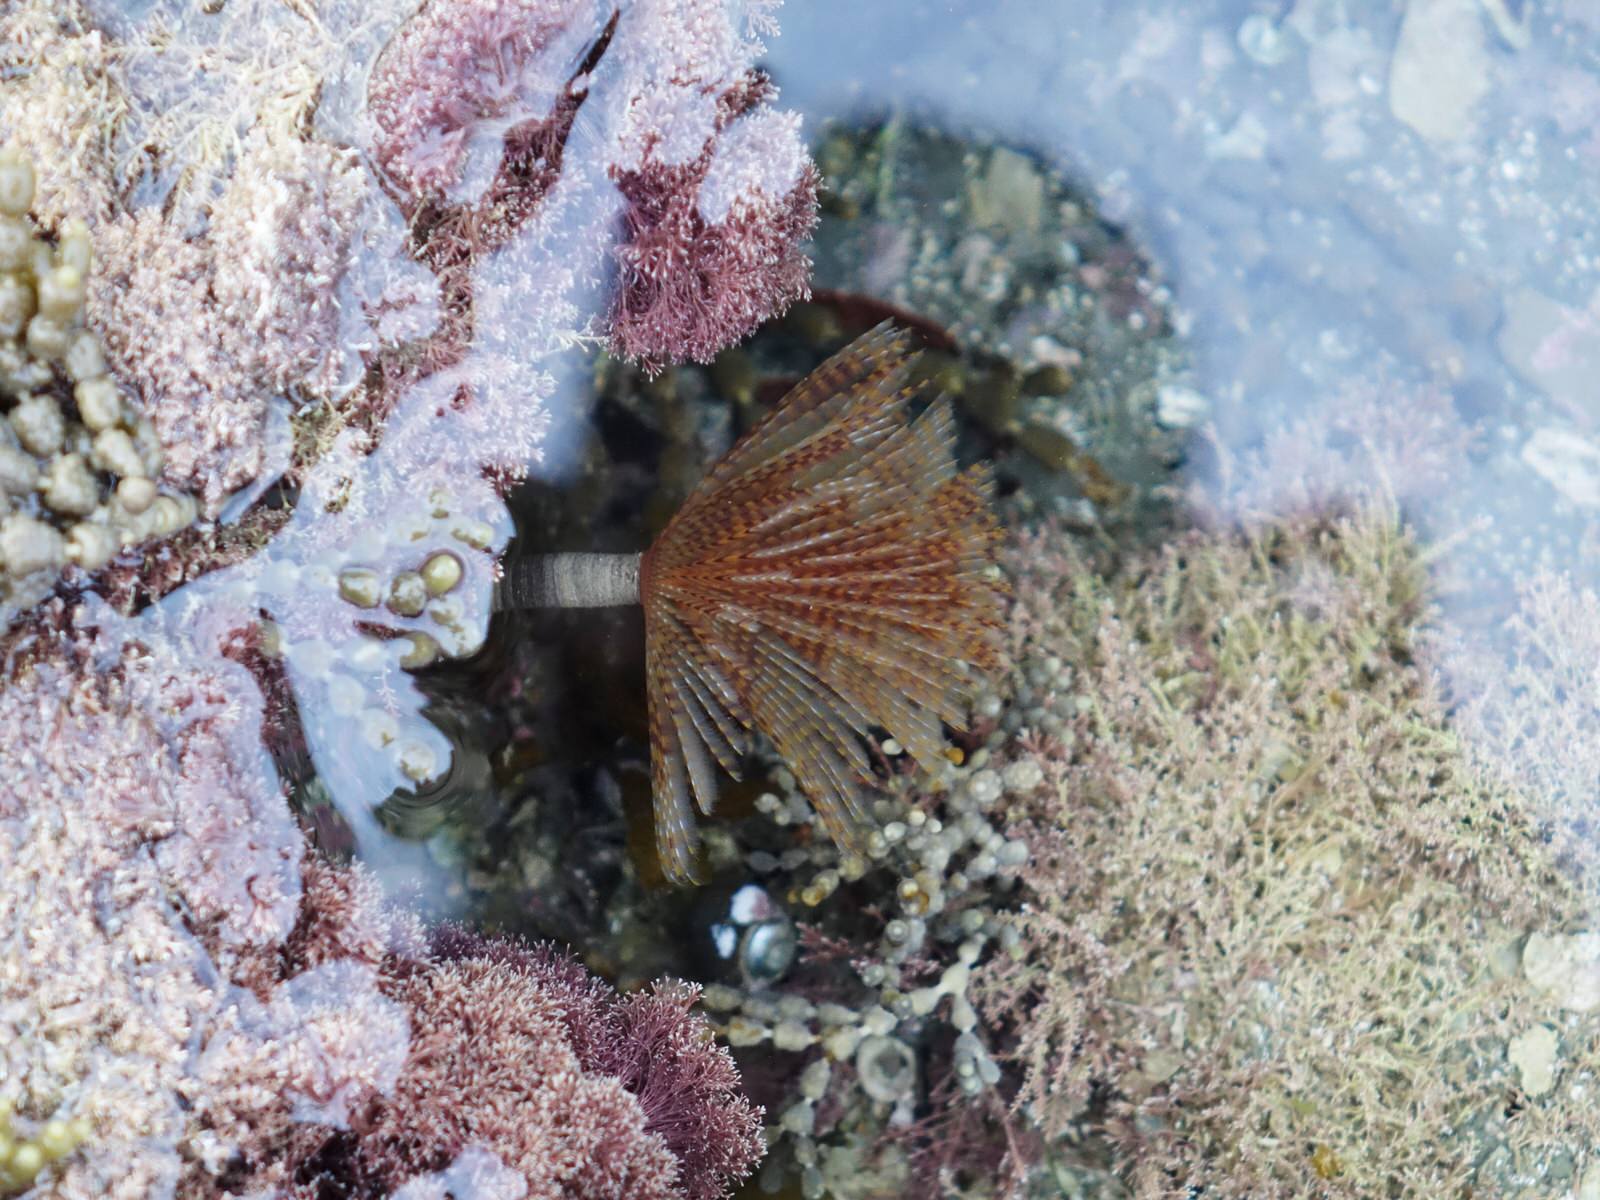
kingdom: Animalia
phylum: Annelida
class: Polychaeta
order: Sabellida
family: Sabellidae
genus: Sabella
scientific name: Sabella spallanzanii
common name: Feather duster worm
